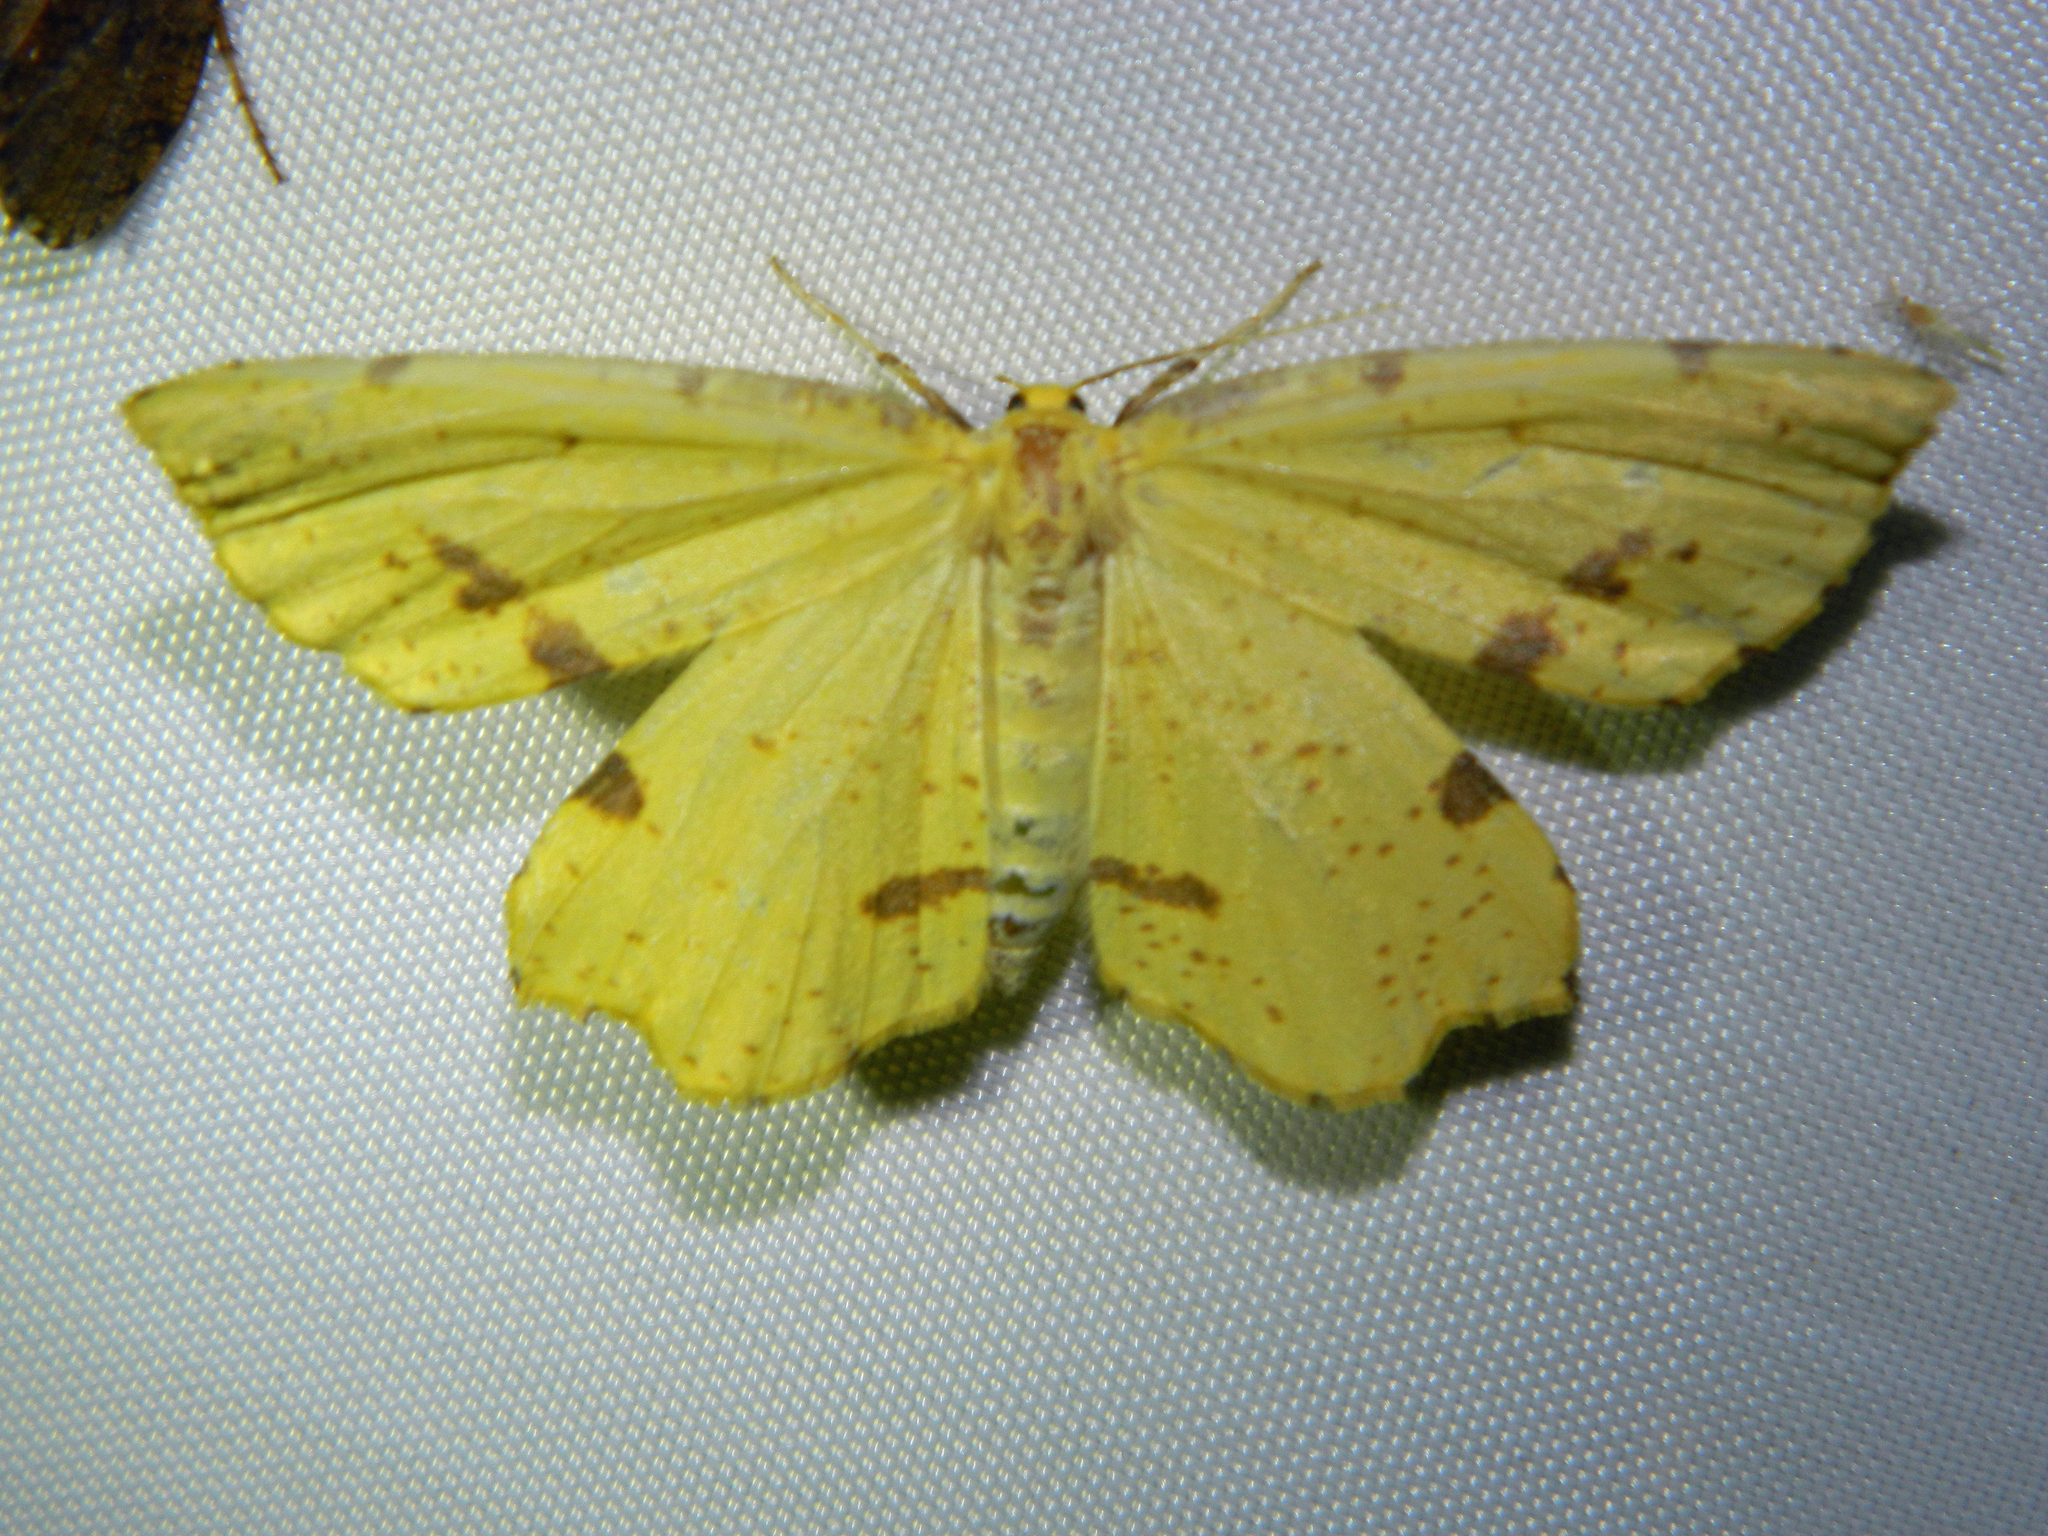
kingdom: Animalia
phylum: Arthropoda
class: Insecta
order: Lepidoptera
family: Geometridae
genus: Xanthotype
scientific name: Xanthotype
